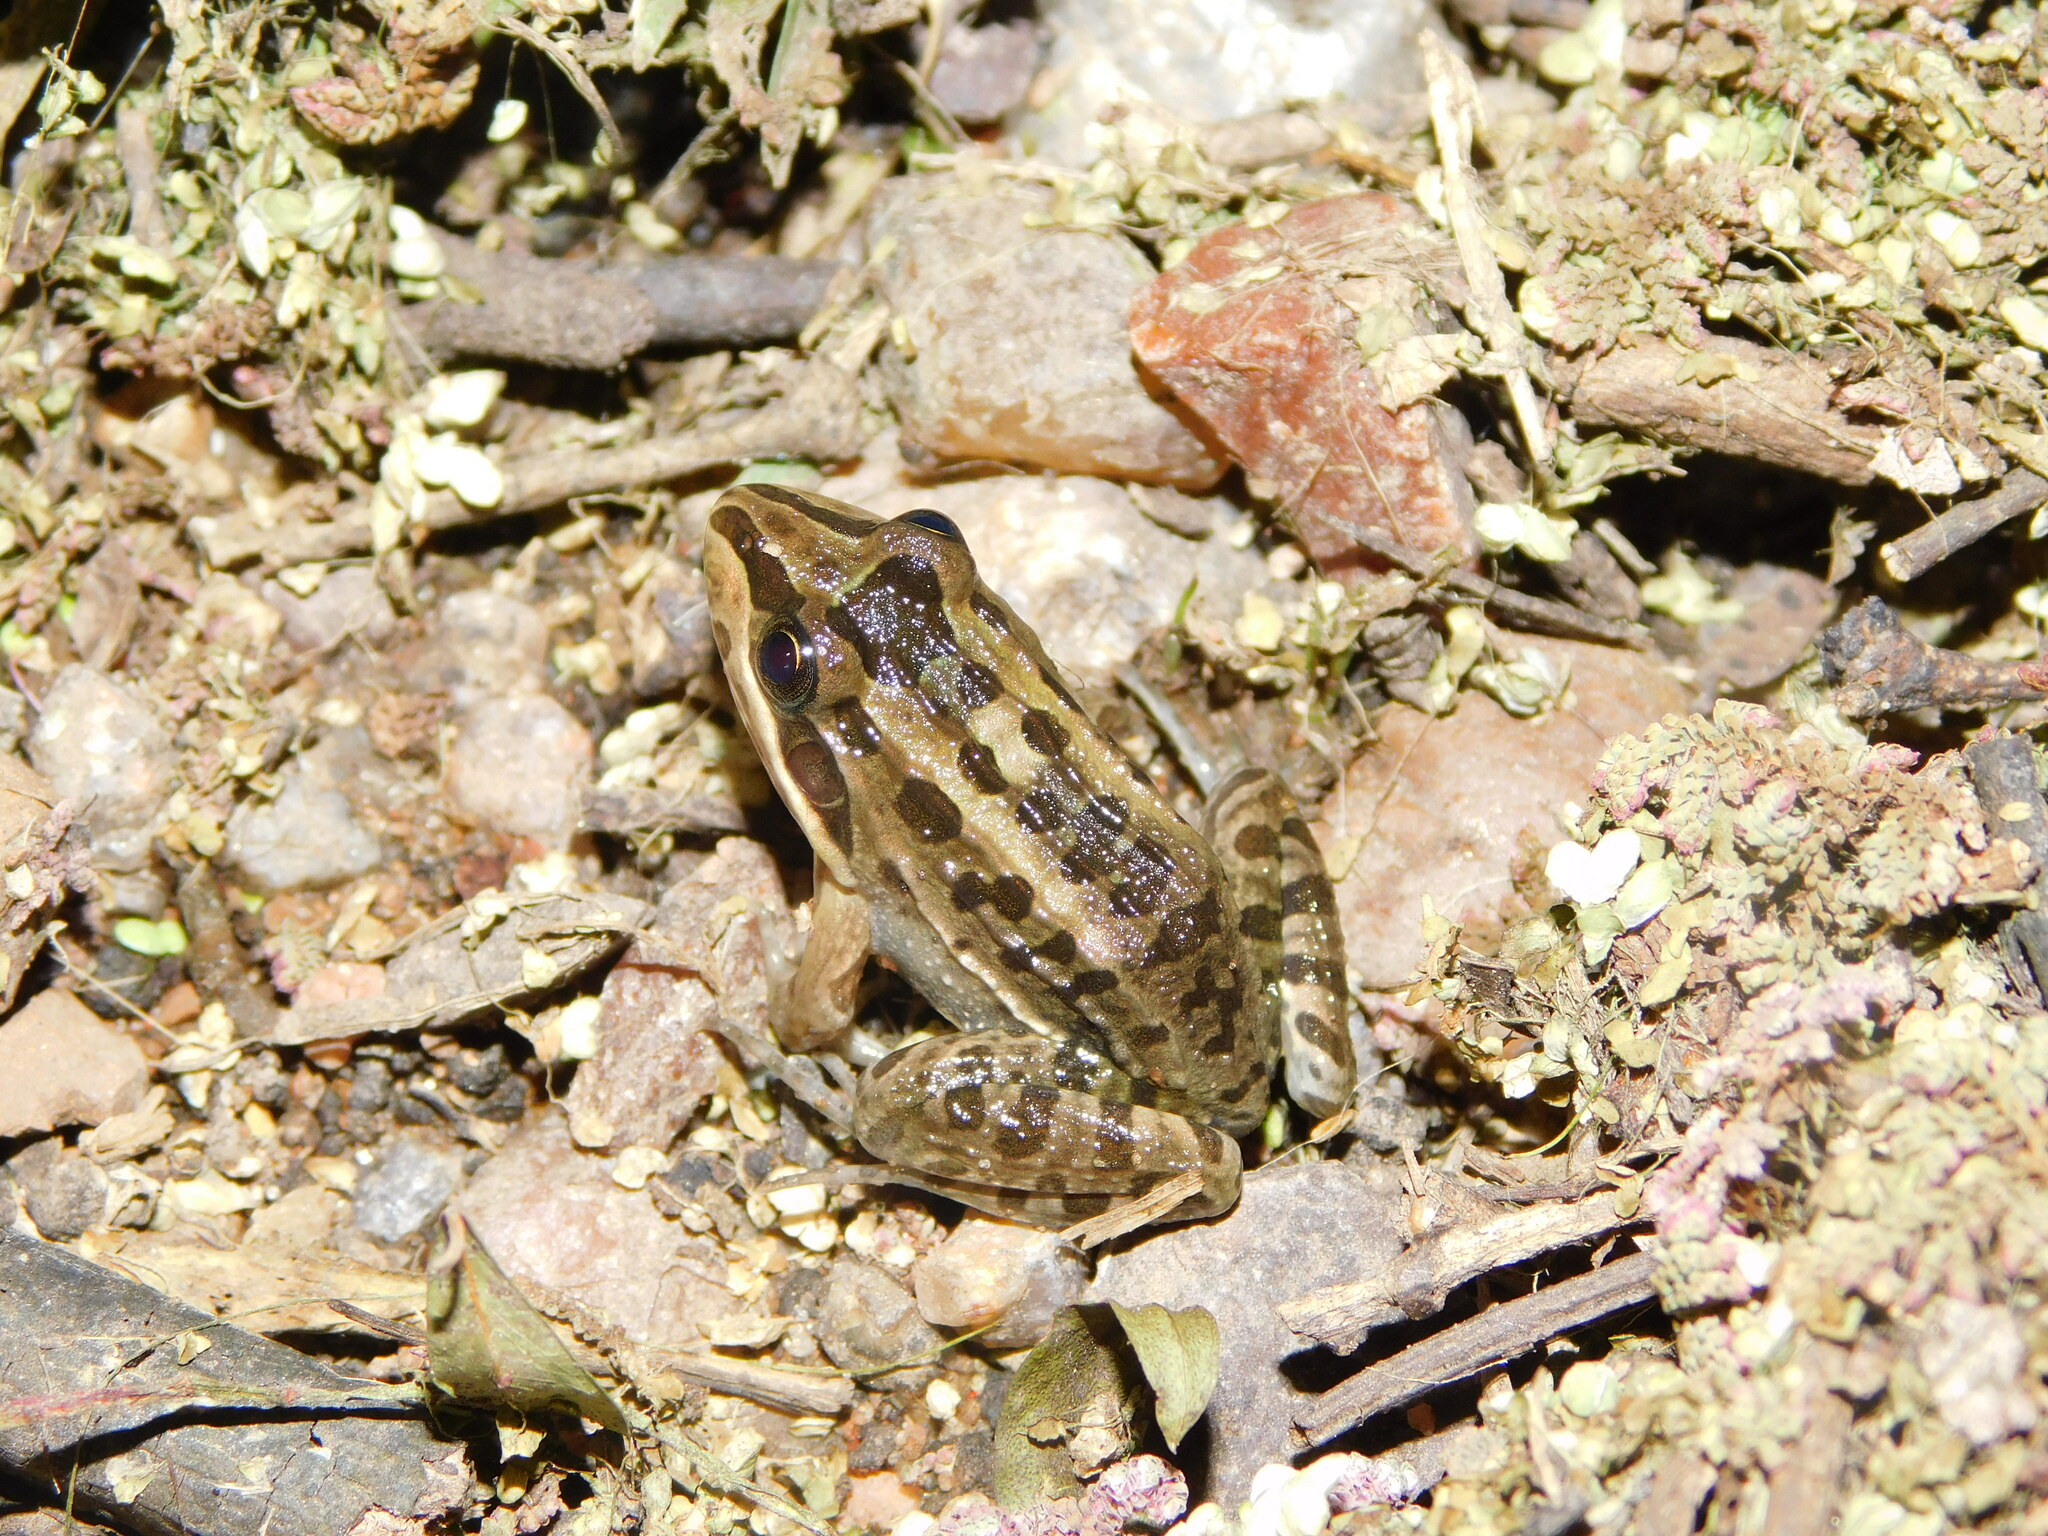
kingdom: Animalia
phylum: Chordata
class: Amphibia
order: Anura
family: Leptodactylidae
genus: Leptodactylus
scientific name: Leptodactylus luctator
